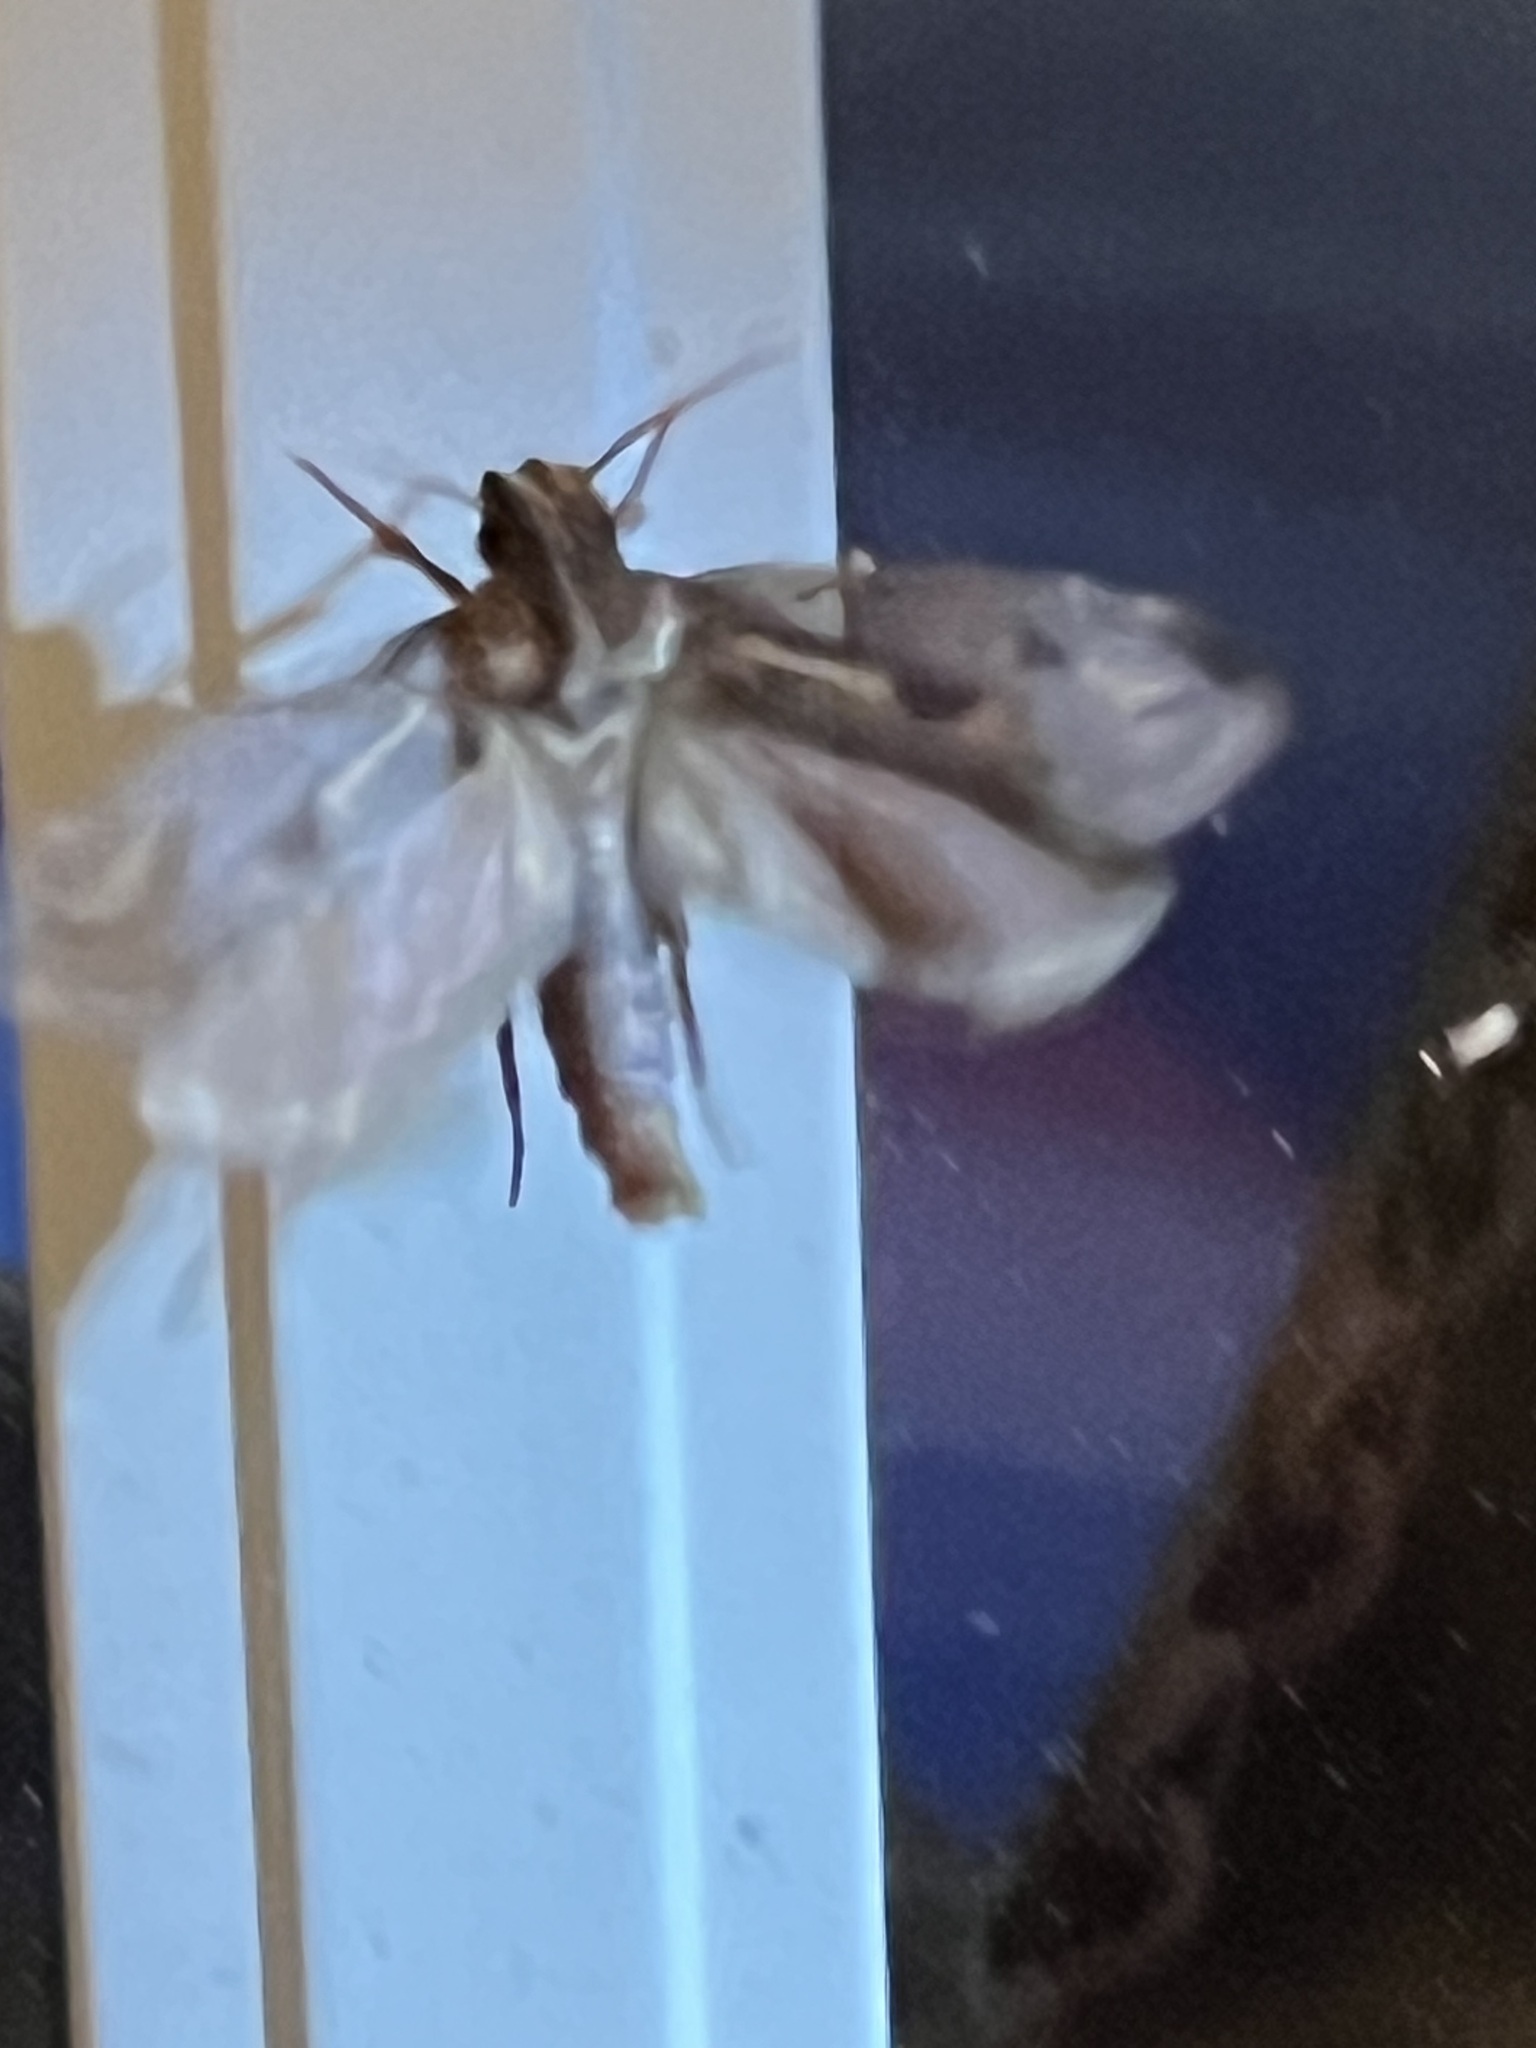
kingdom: Animalia
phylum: Arthropoda
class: Insecta
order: Lepidoptera
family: Tineidae
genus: Acrolophus
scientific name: Acrolophus popeanella
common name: Clemens' grass tubeworm moth
